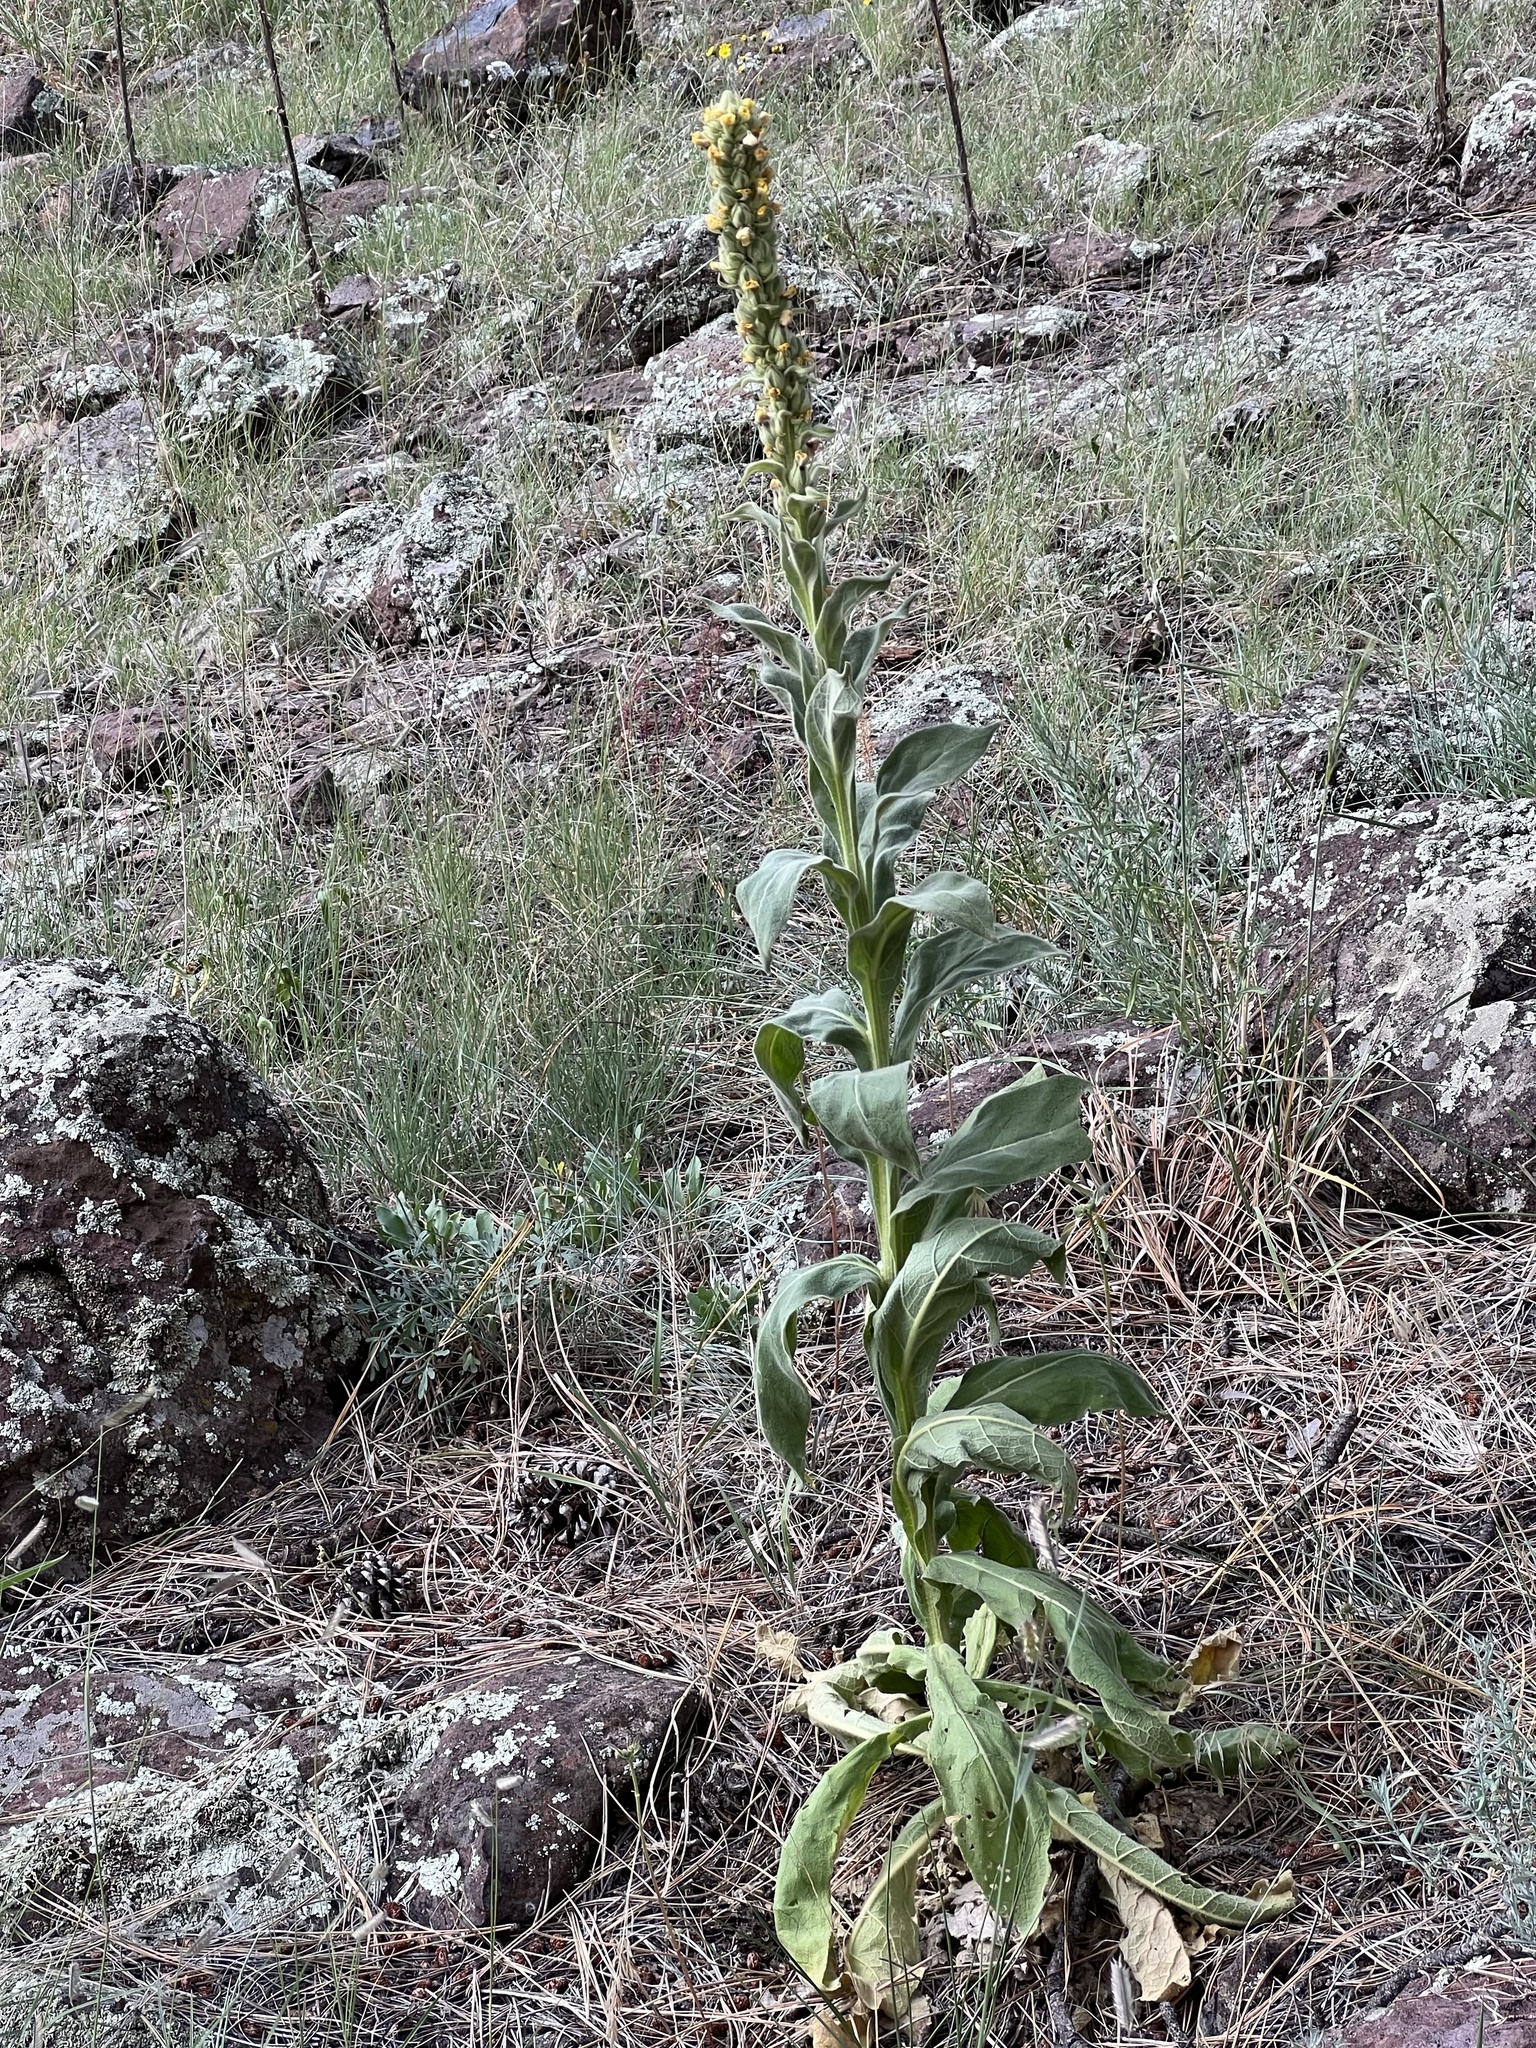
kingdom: Plantae
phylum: Tracheophyta
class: Magnoliopsida
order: Lamiales
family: Scrophulariaceae
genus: Verbascum
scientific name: Verbascum thapsus
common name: Common mullein
